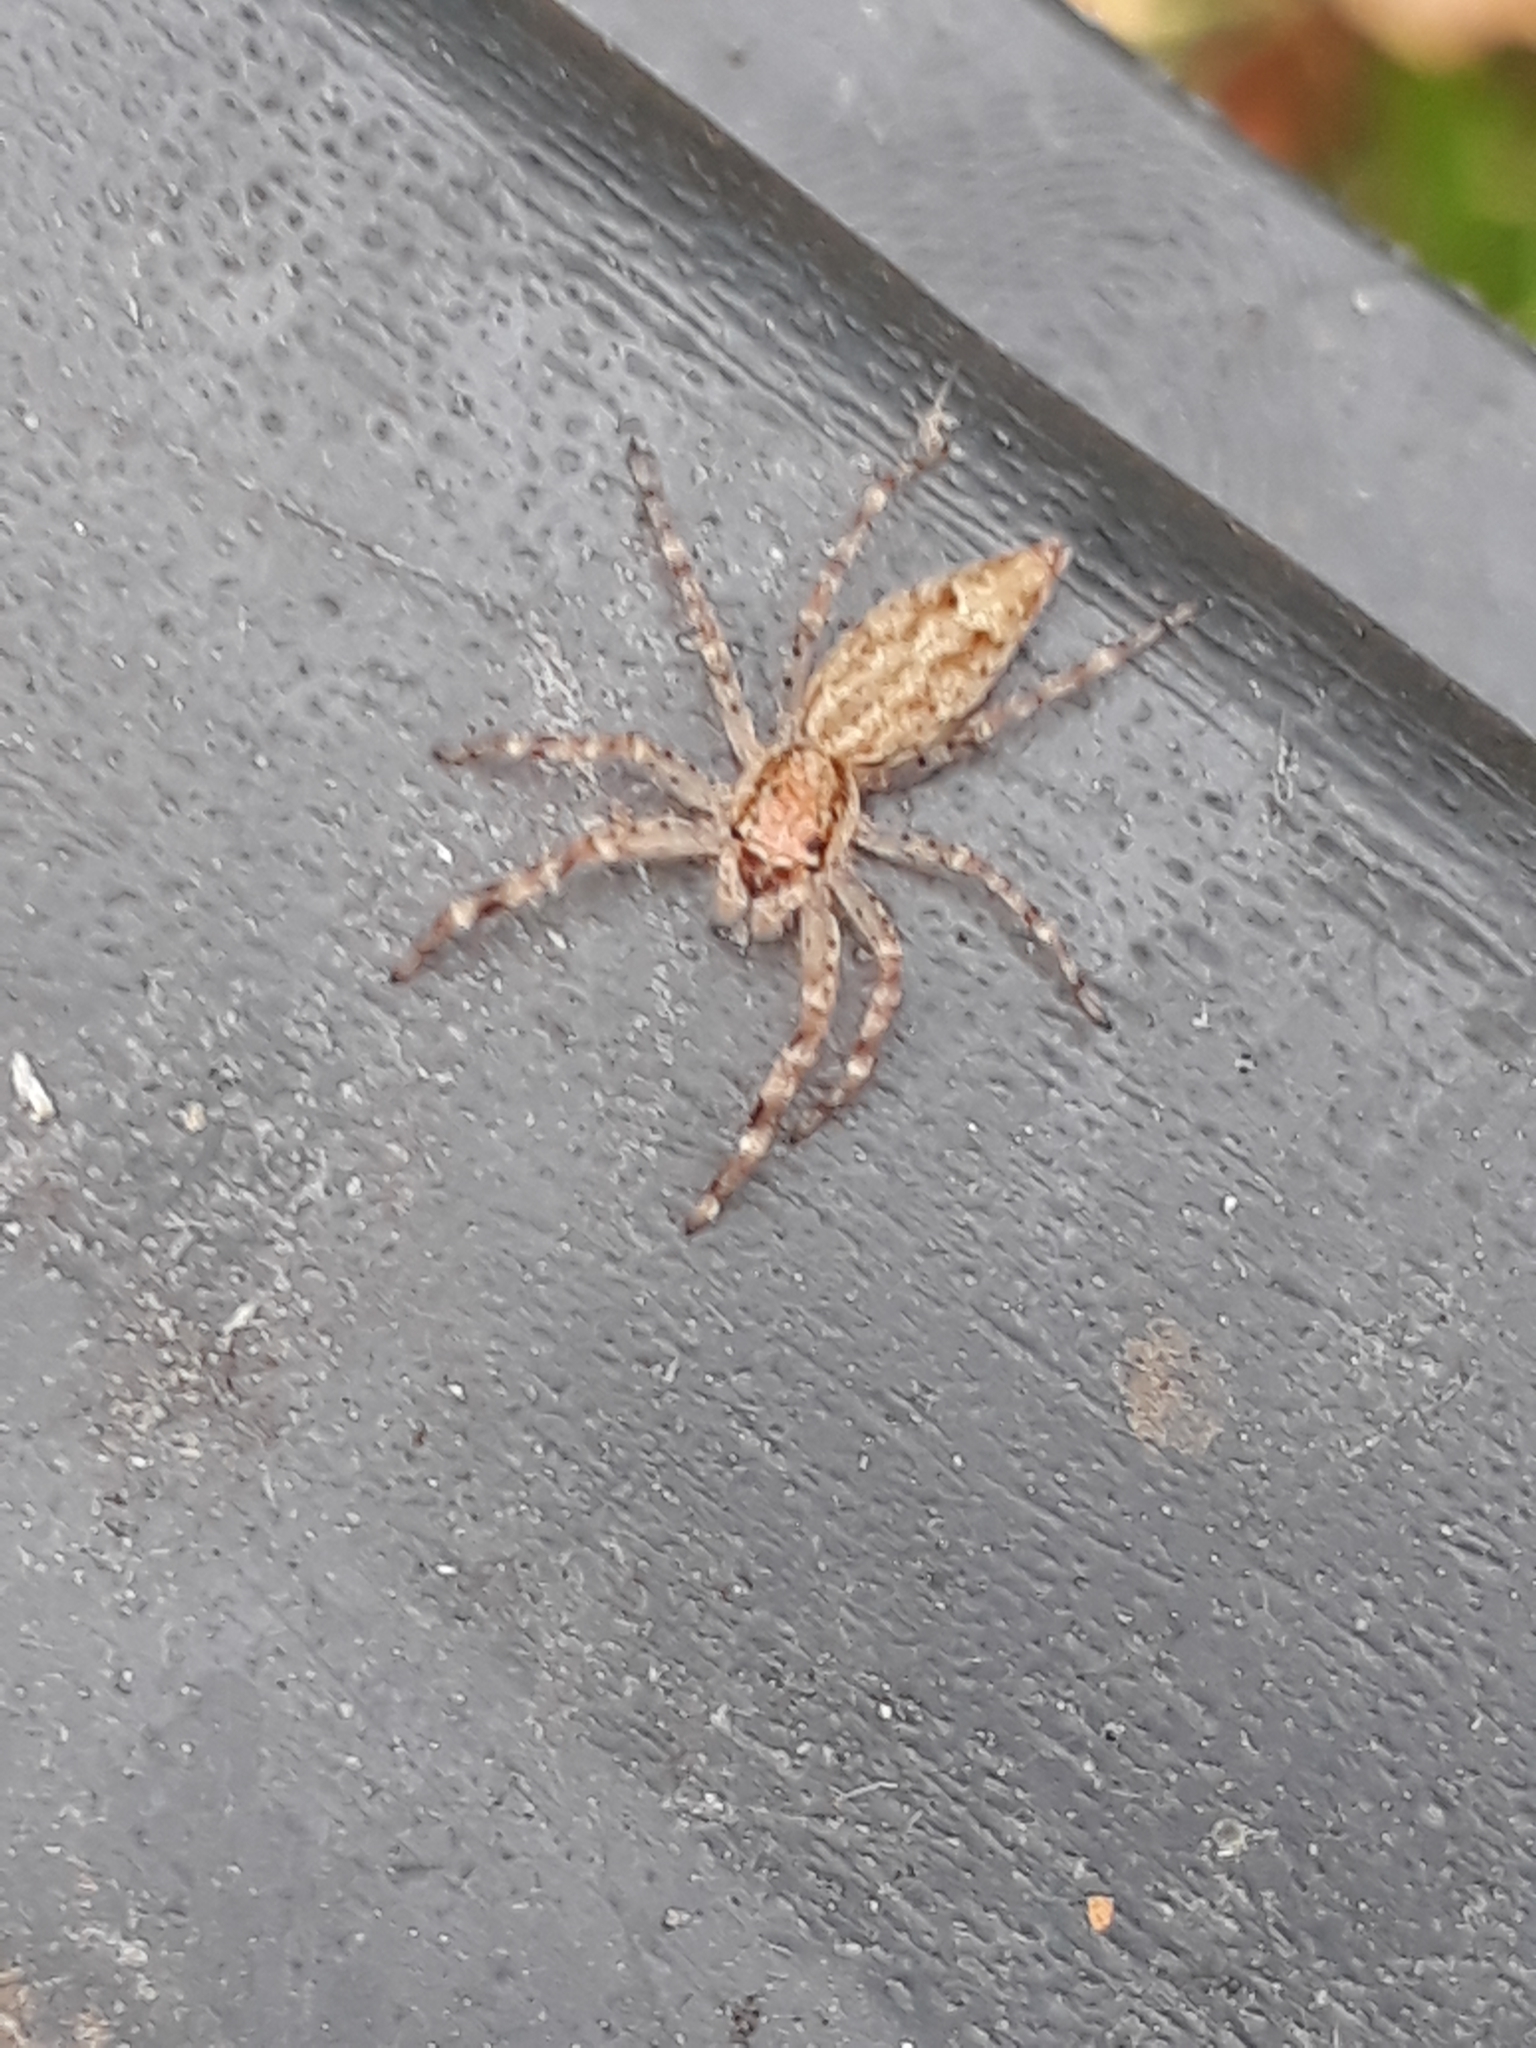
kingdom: Animalia
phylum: Arthropoda
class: Arachnida
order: Araneae
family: Salticidae
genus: Helpis
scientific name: Helpis minitabunda
